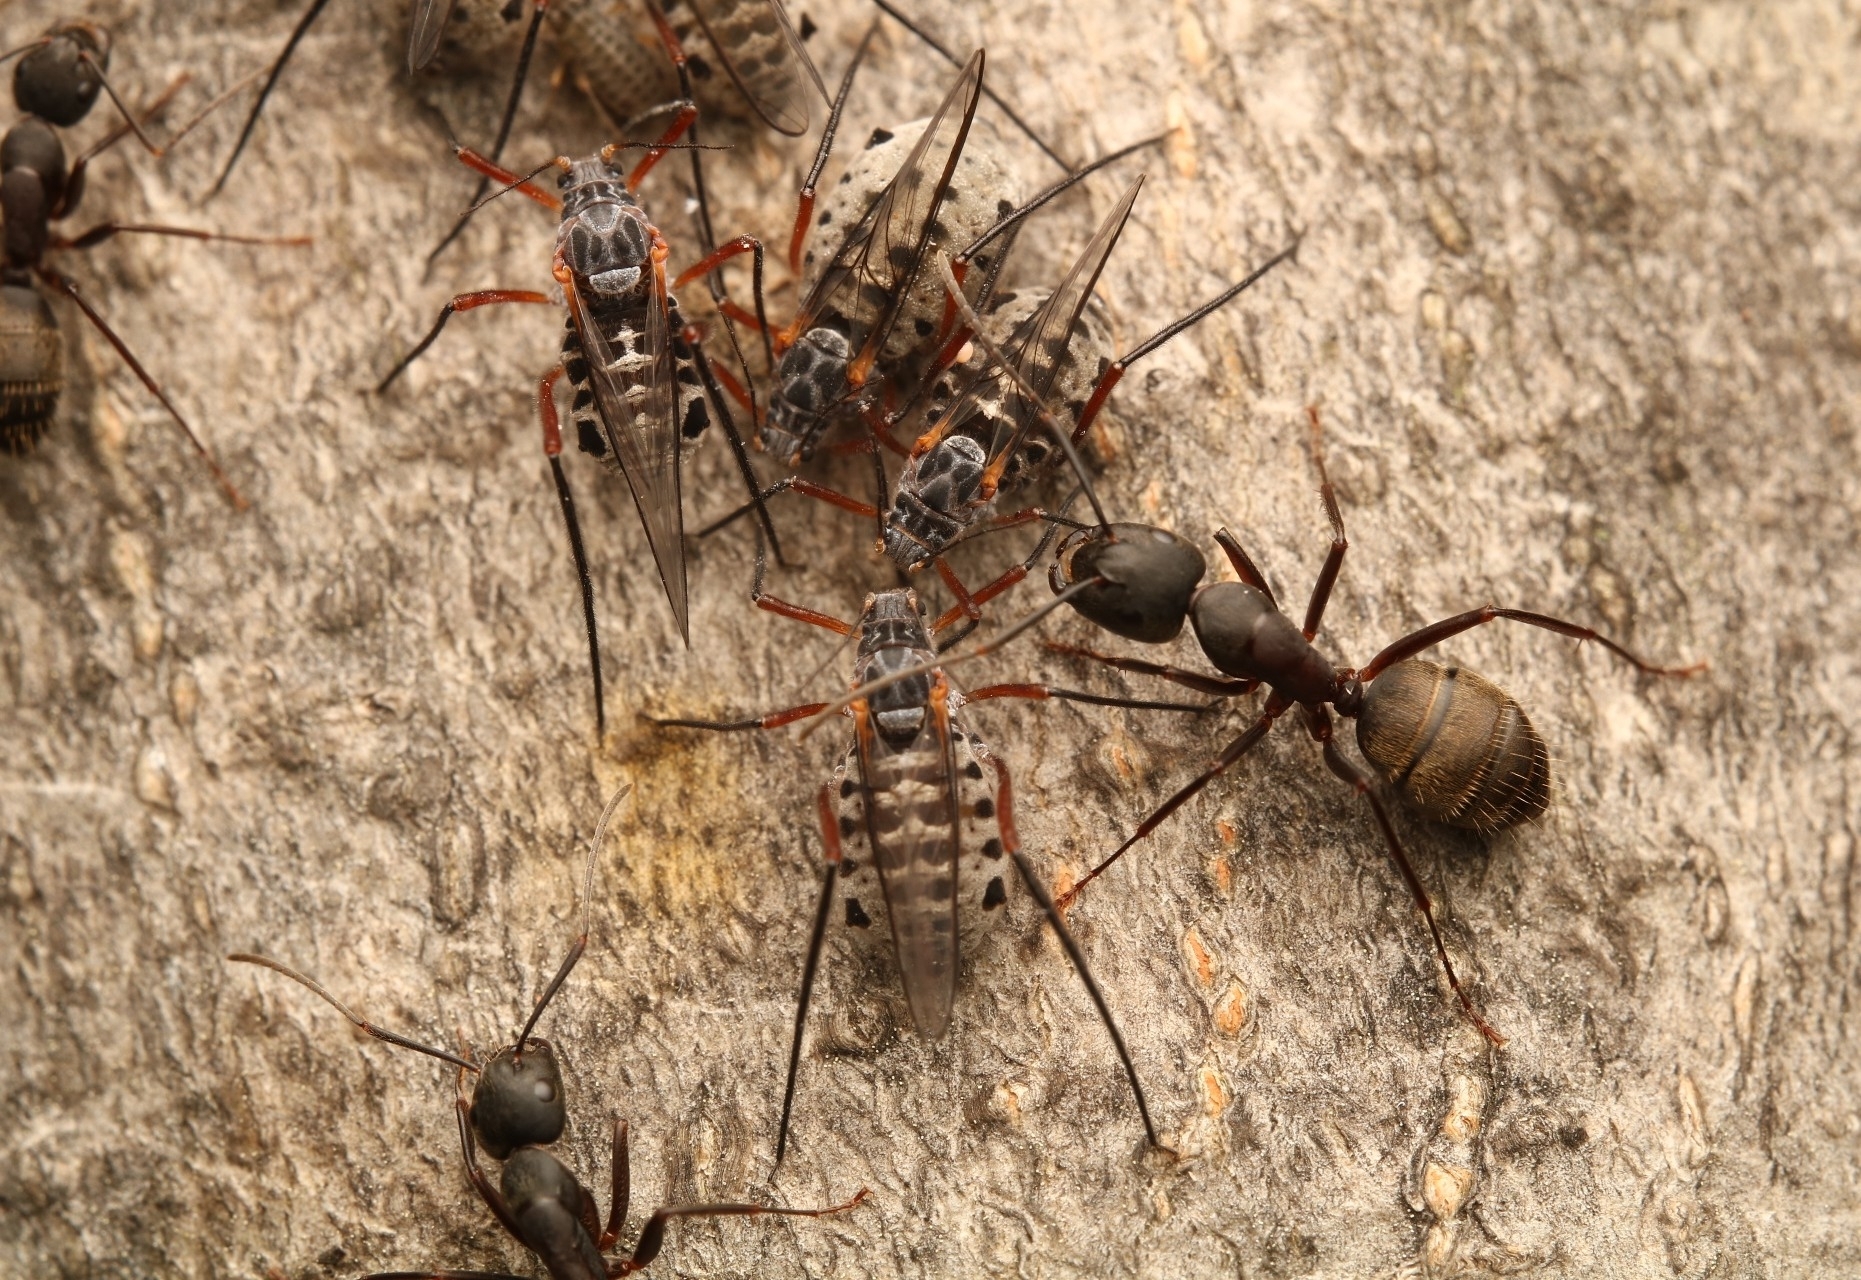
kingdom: Animalia
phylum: Arthropoda
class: Insecta
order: Hemiptera
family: Aphididae
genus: Longistigma
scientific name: Longistigma caryae
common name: Giant bark aphid
